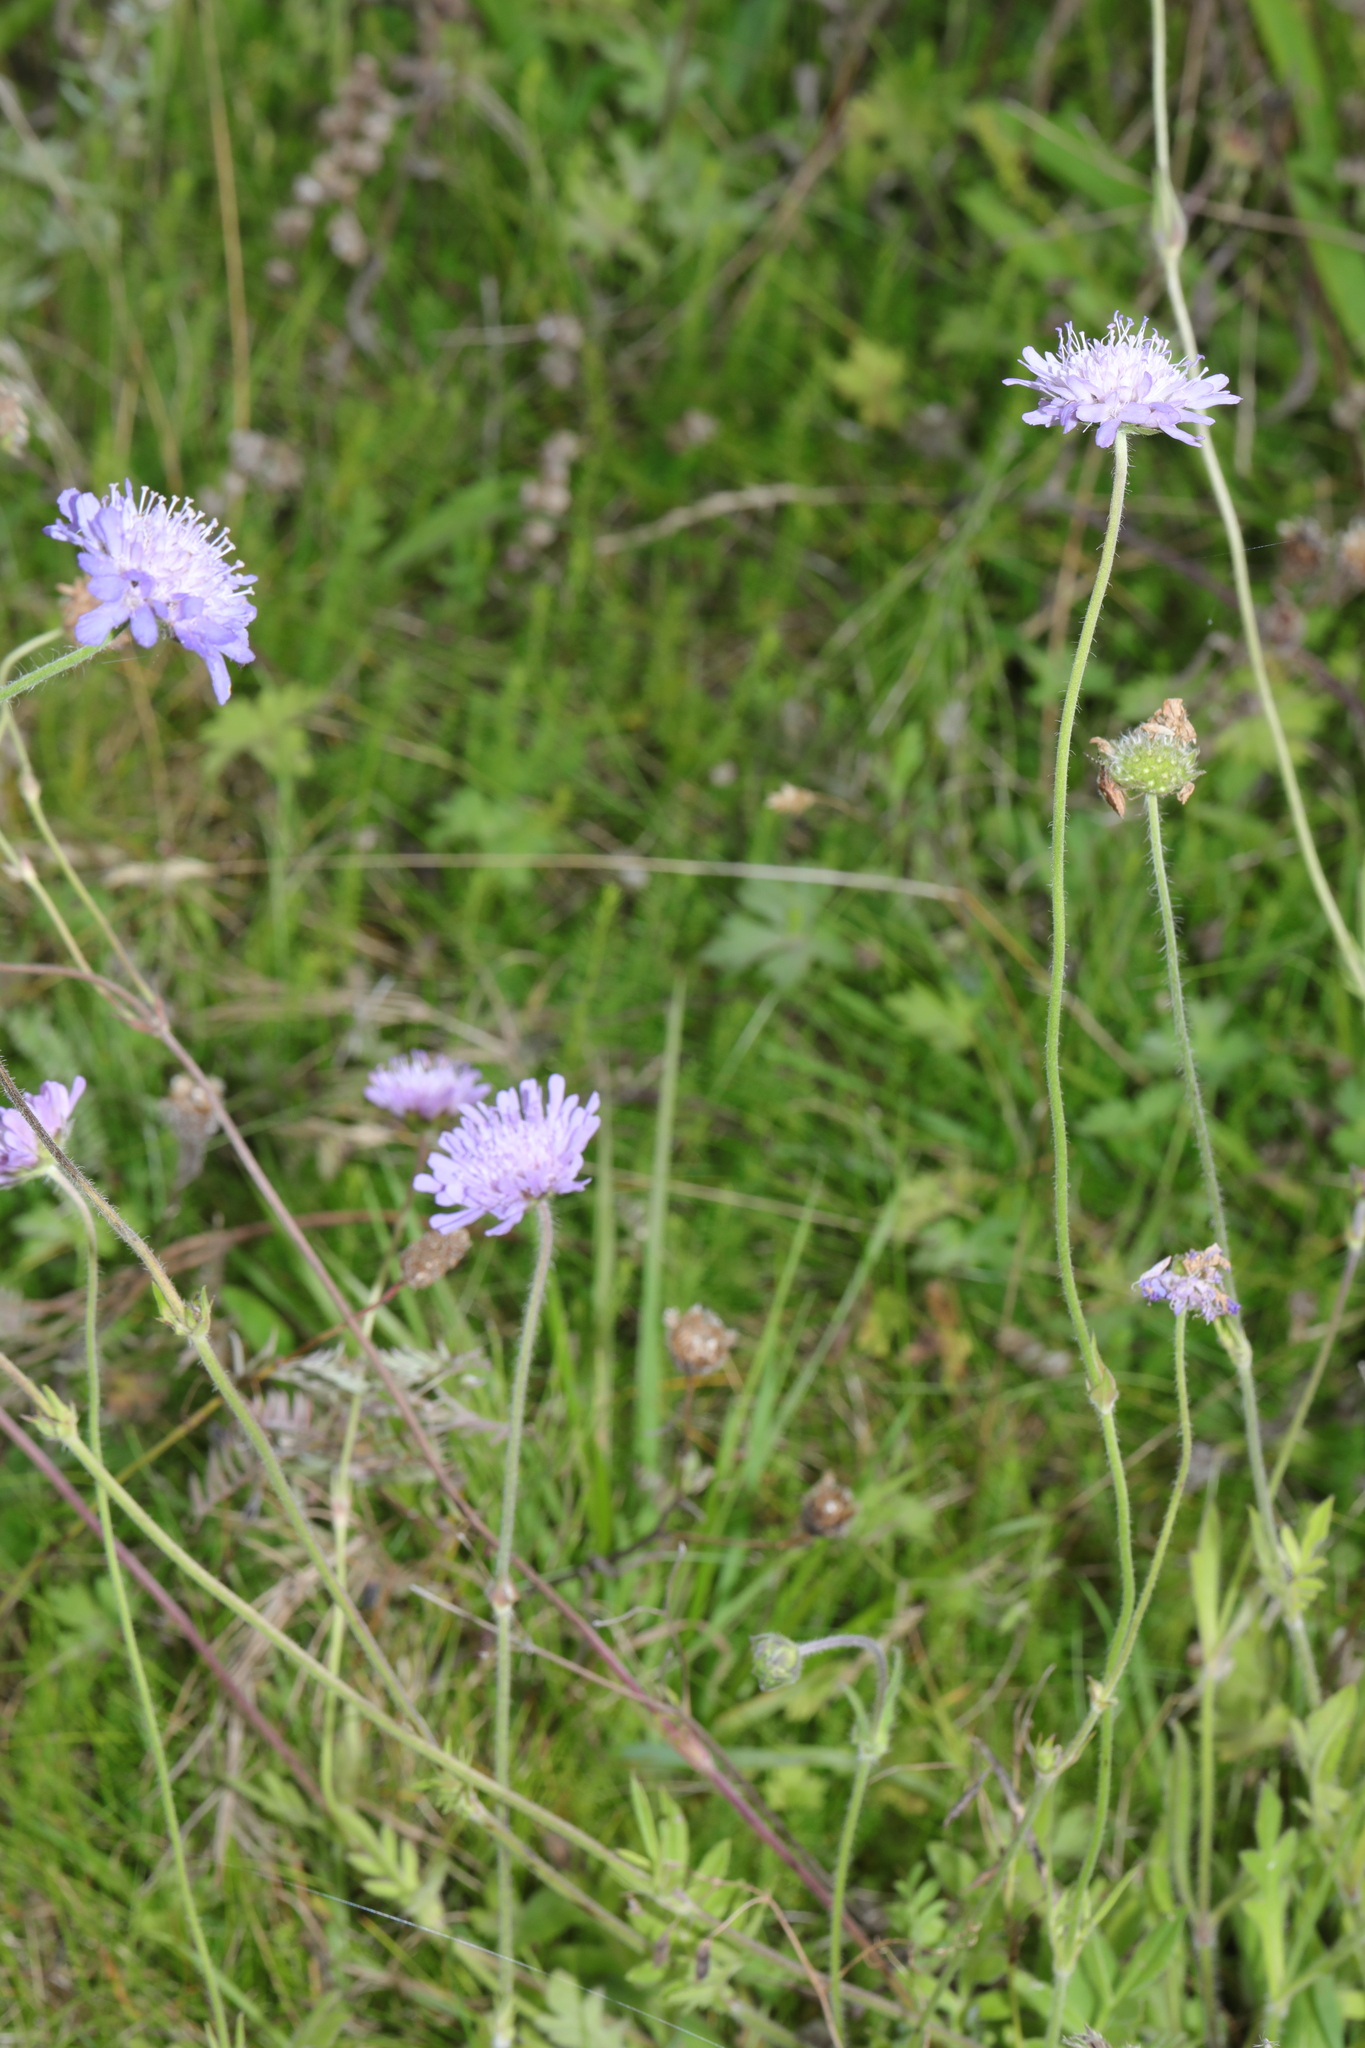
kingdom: Plantae
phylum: Tracheophyta
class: Magnoliopsida
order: Dipsacales
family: Caprifoliaceae
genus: Knautia
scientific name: Knautia arvensis
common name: Field scabiosa
